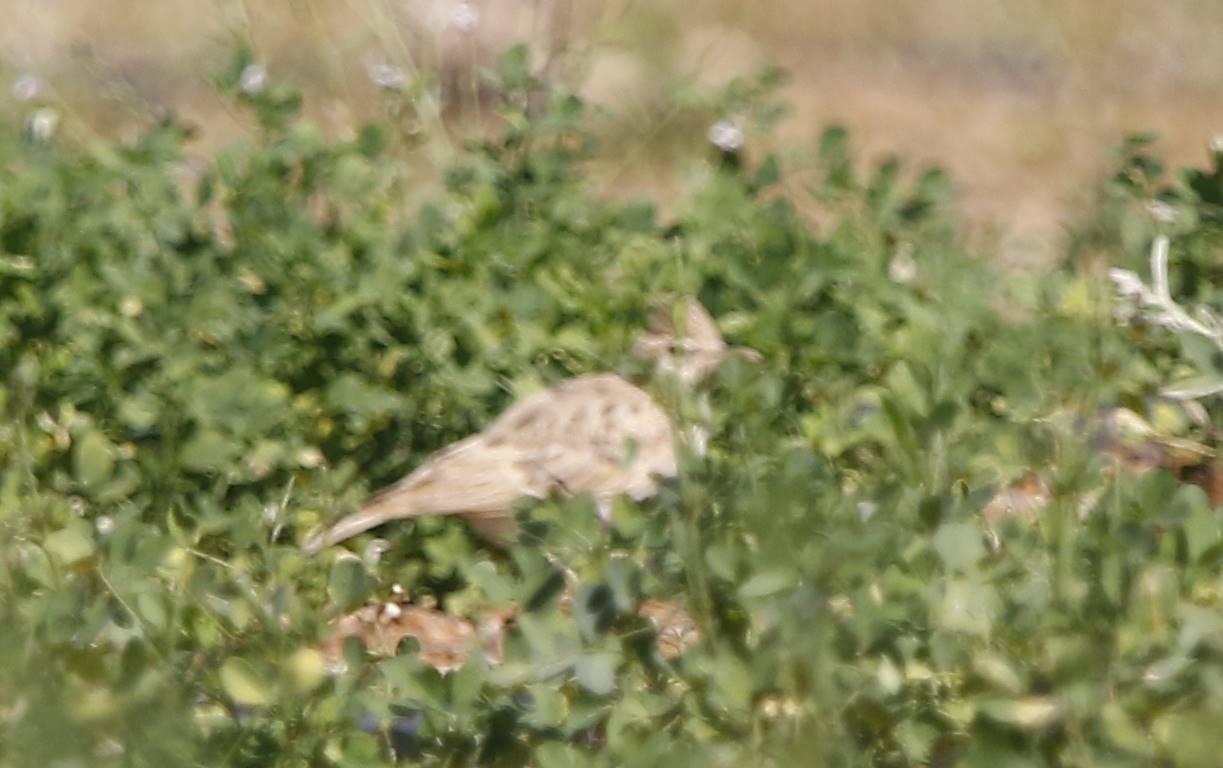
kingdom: Animalia
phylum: Chordata
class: Aves
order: Passeriformes
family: Alaudidae
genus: Galerida
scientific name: Galerida cristata
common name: Crested lark
